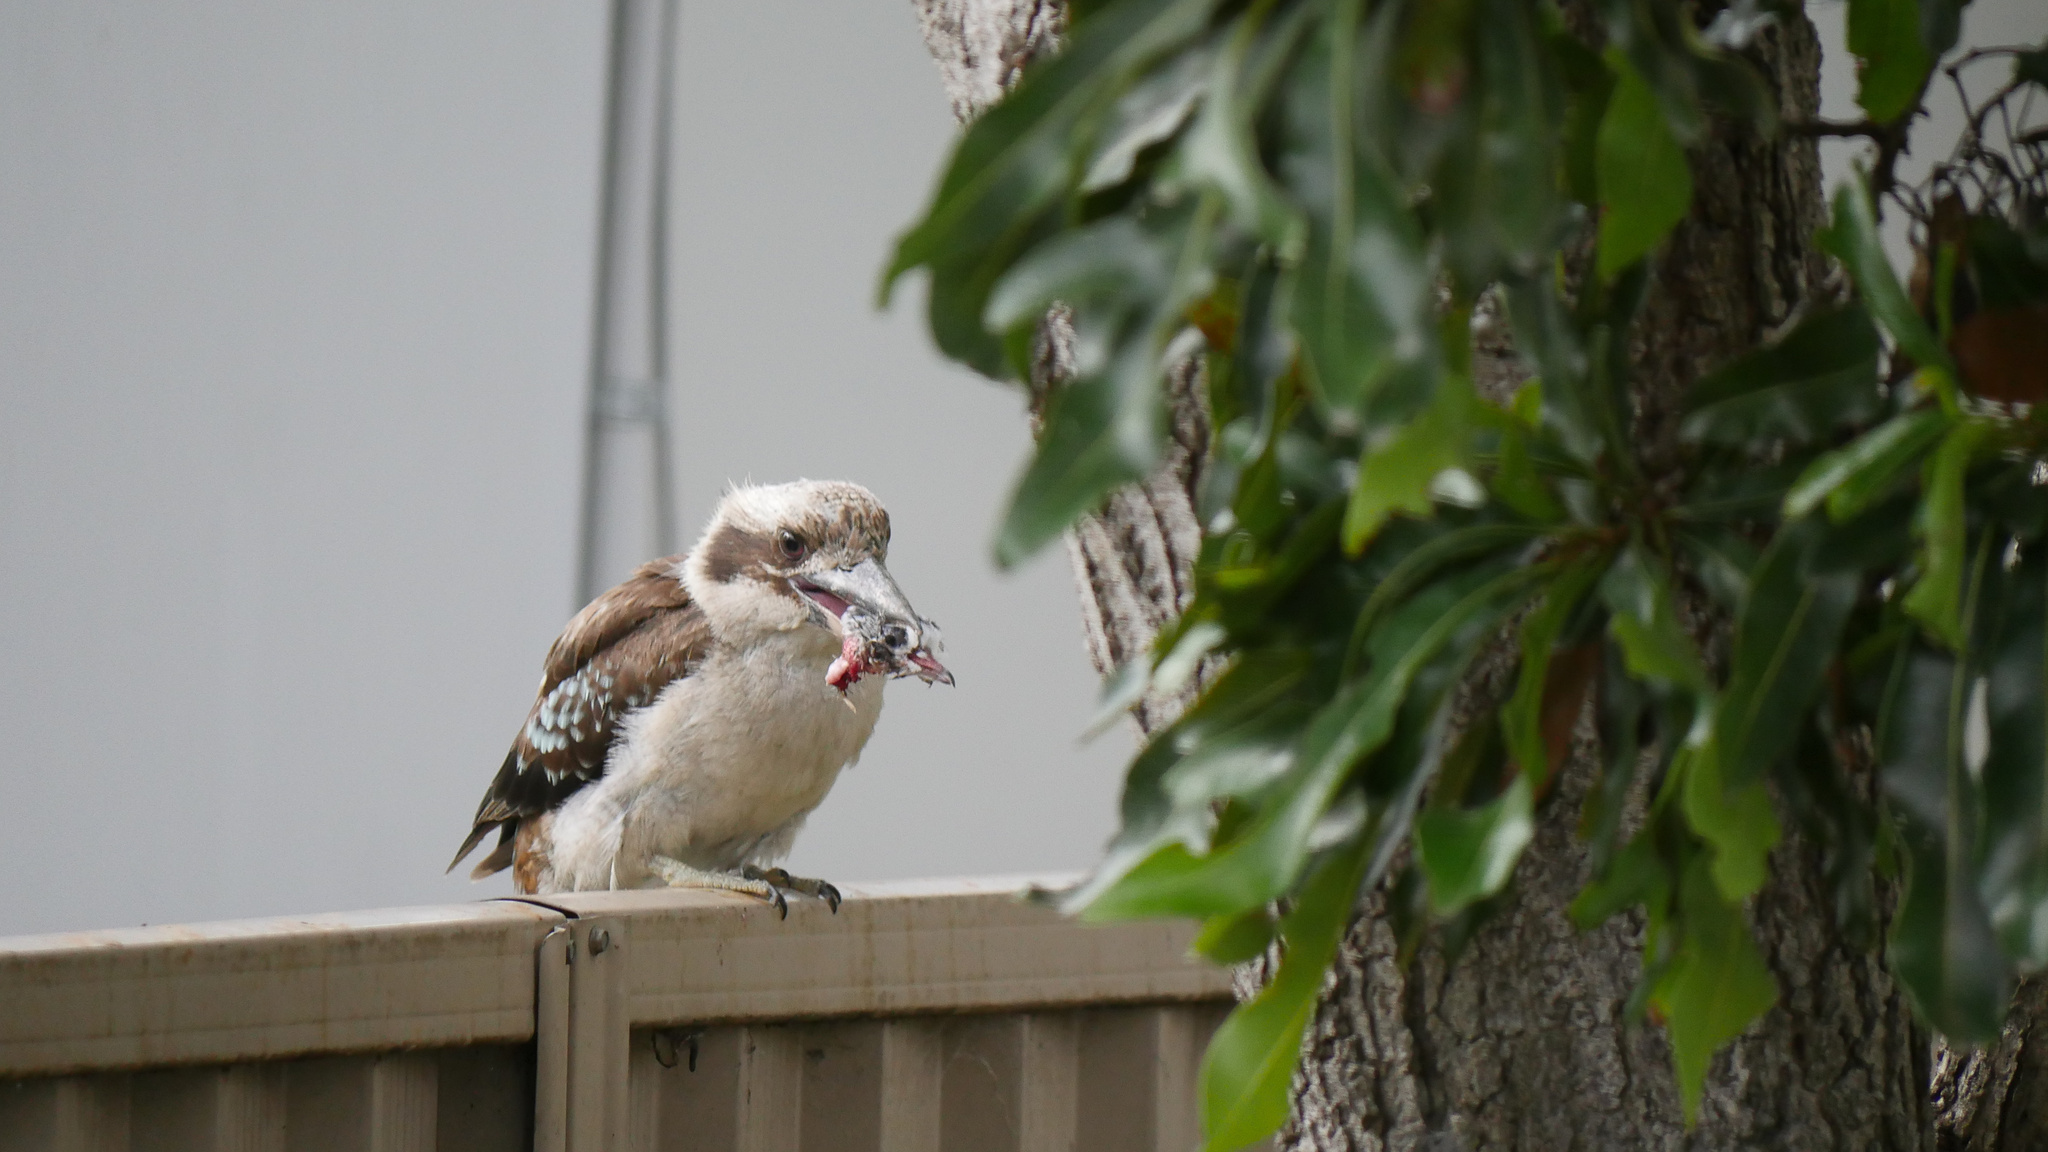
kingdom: Animalia
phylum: Chordata
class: Aves
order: Coraciiformes
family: Alcedinidae
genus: Dacelo
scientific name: Dacelo novaeguineae
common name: Laughing kookaburra
